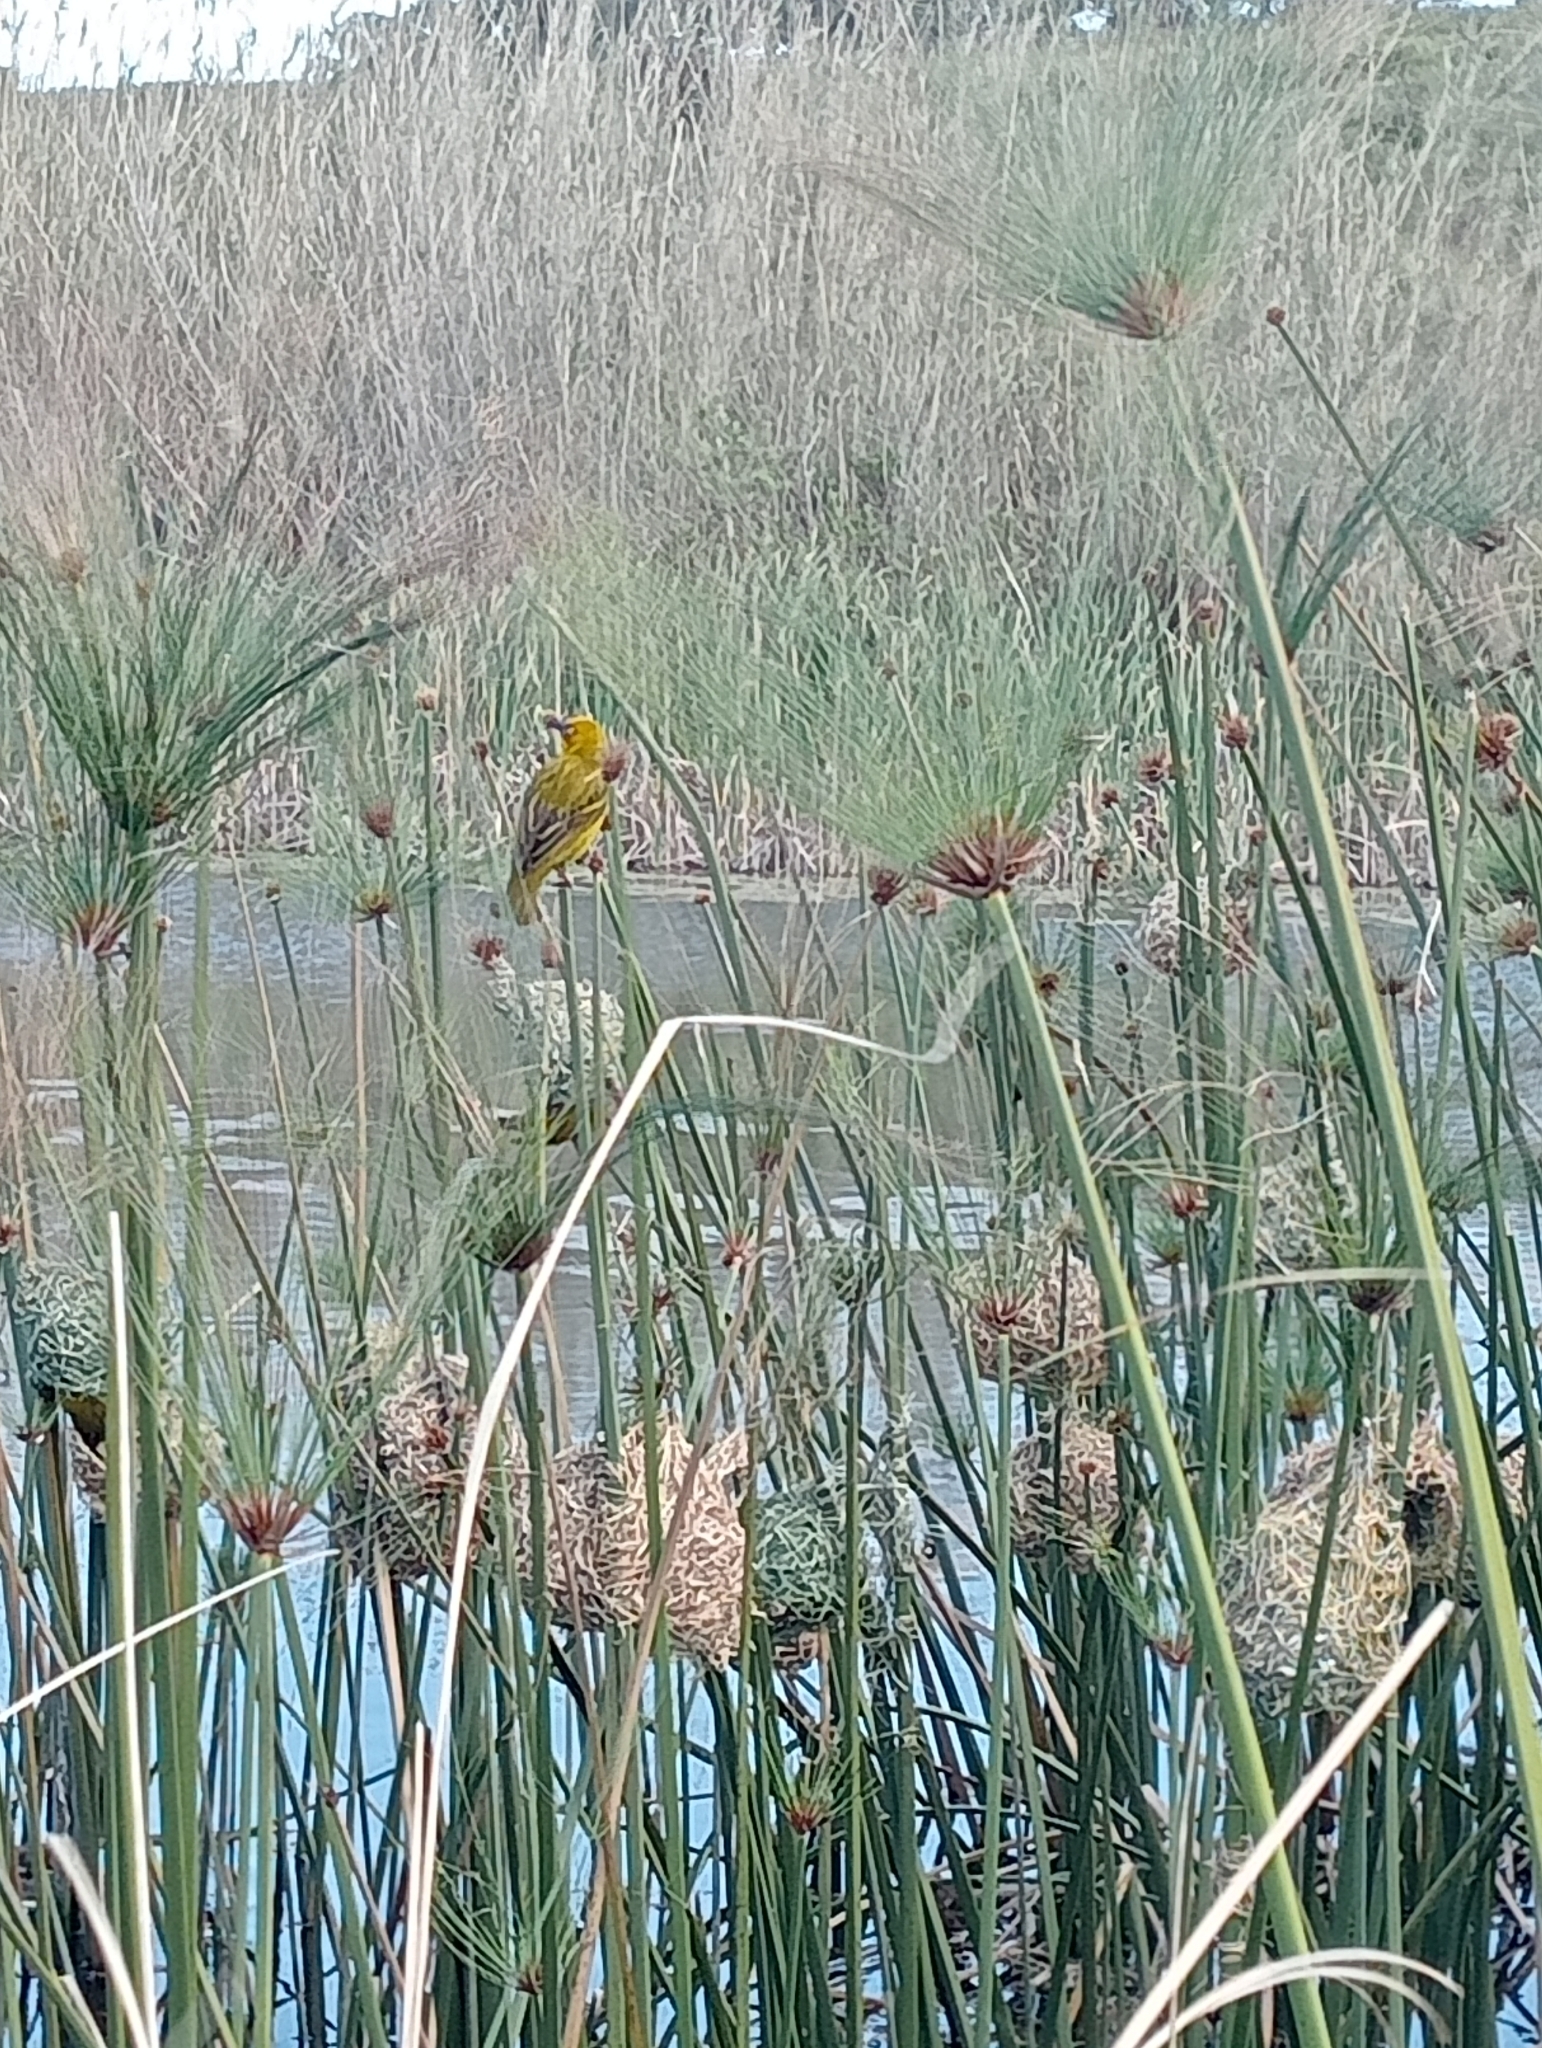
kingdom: Animalia
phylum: Chordata
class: Aves
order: Passeriformes
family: Ploceidae
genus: Ploceus
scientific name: Ploceus capensis
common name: Cape weaver
